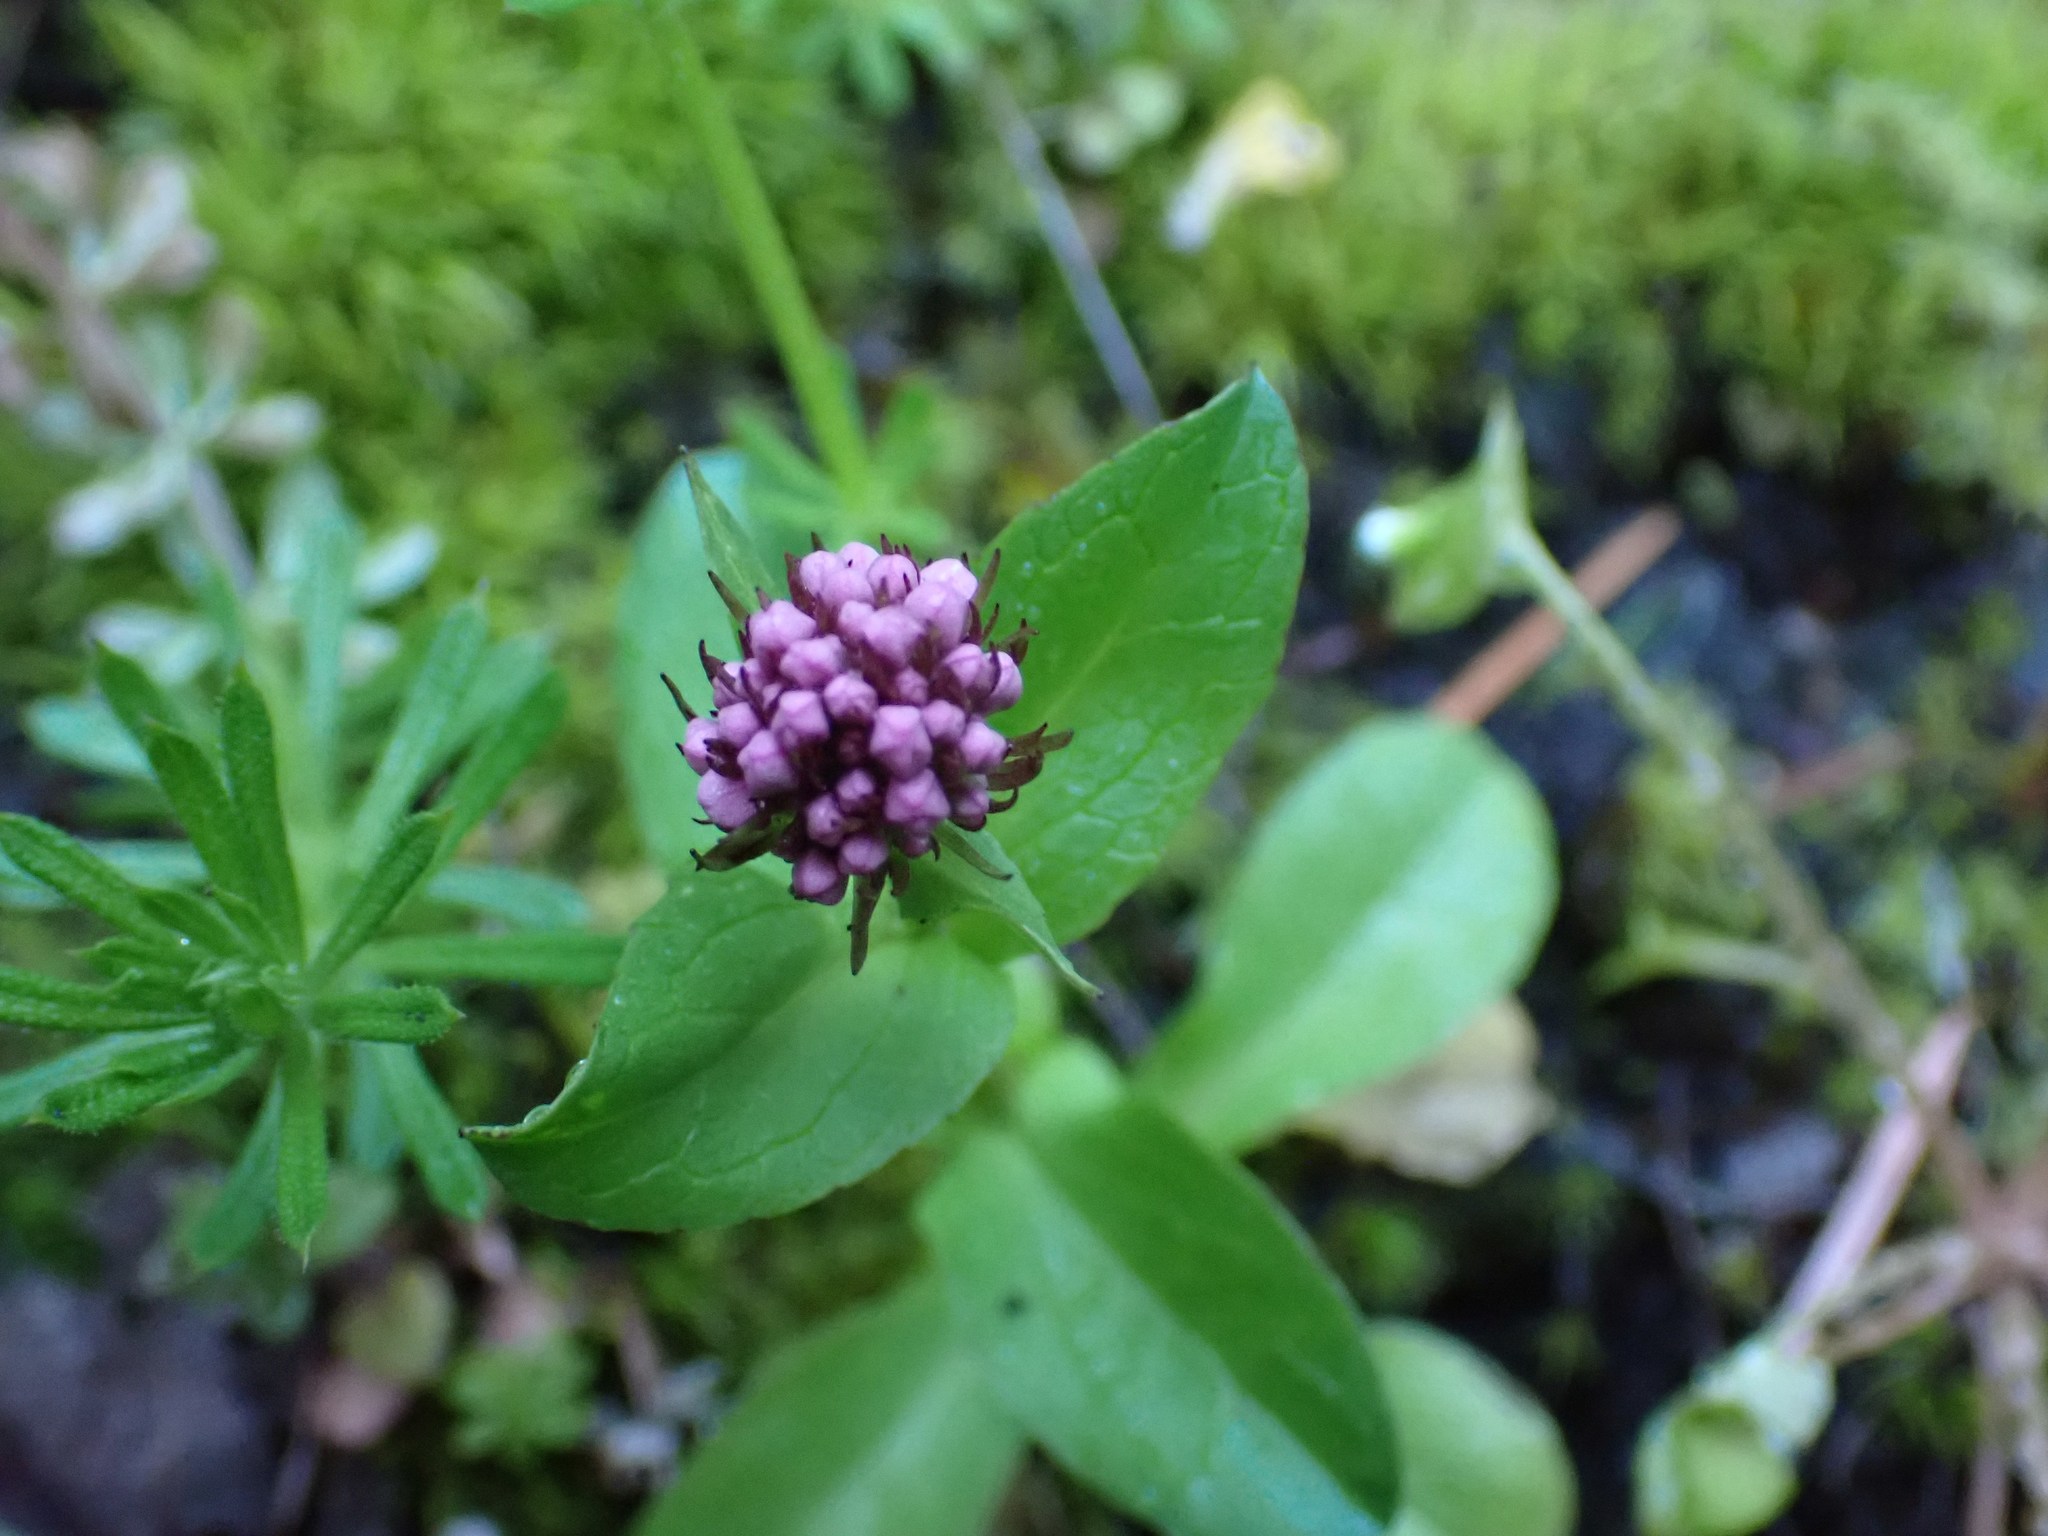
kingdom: Plantae
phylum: Tracheophyta
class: Magnoliopsida
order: Dipsacales
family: Caprifoliaceae
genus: Plectritis
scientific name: Plectritis congesta
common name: Pink plectritis
